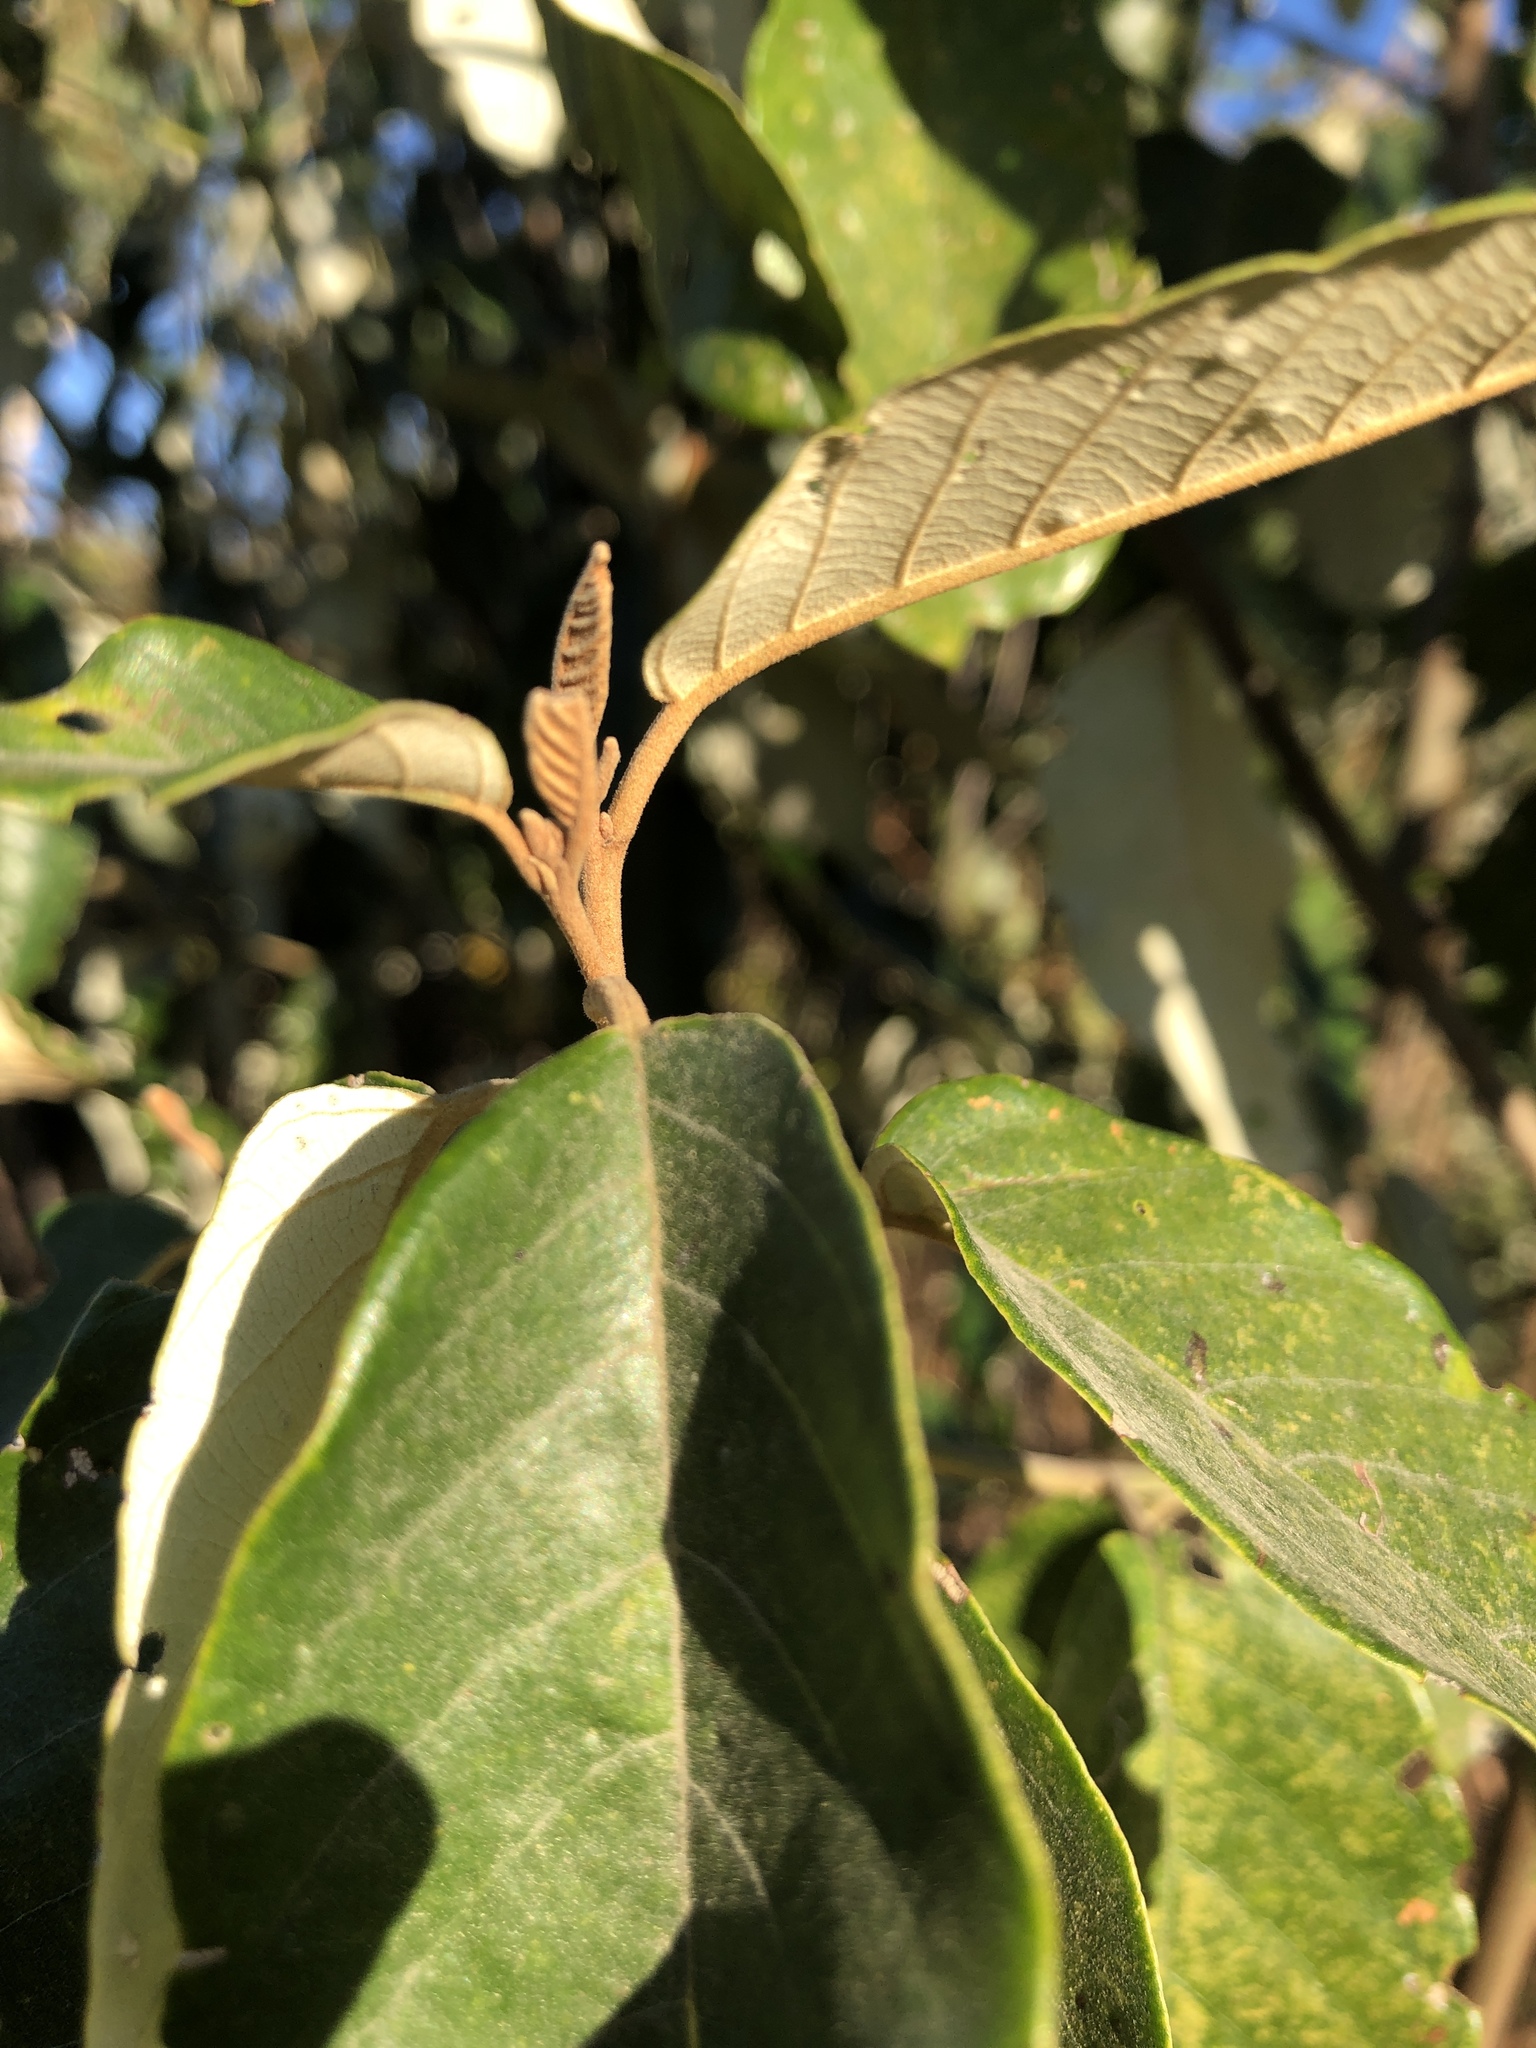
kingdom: Plantae
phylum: Tracheophyta
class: Magnoliopsida
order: Rosales
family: Rhamnaceae
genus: Alphitonia
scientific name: Alphitonia excelsa
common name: Red ash
